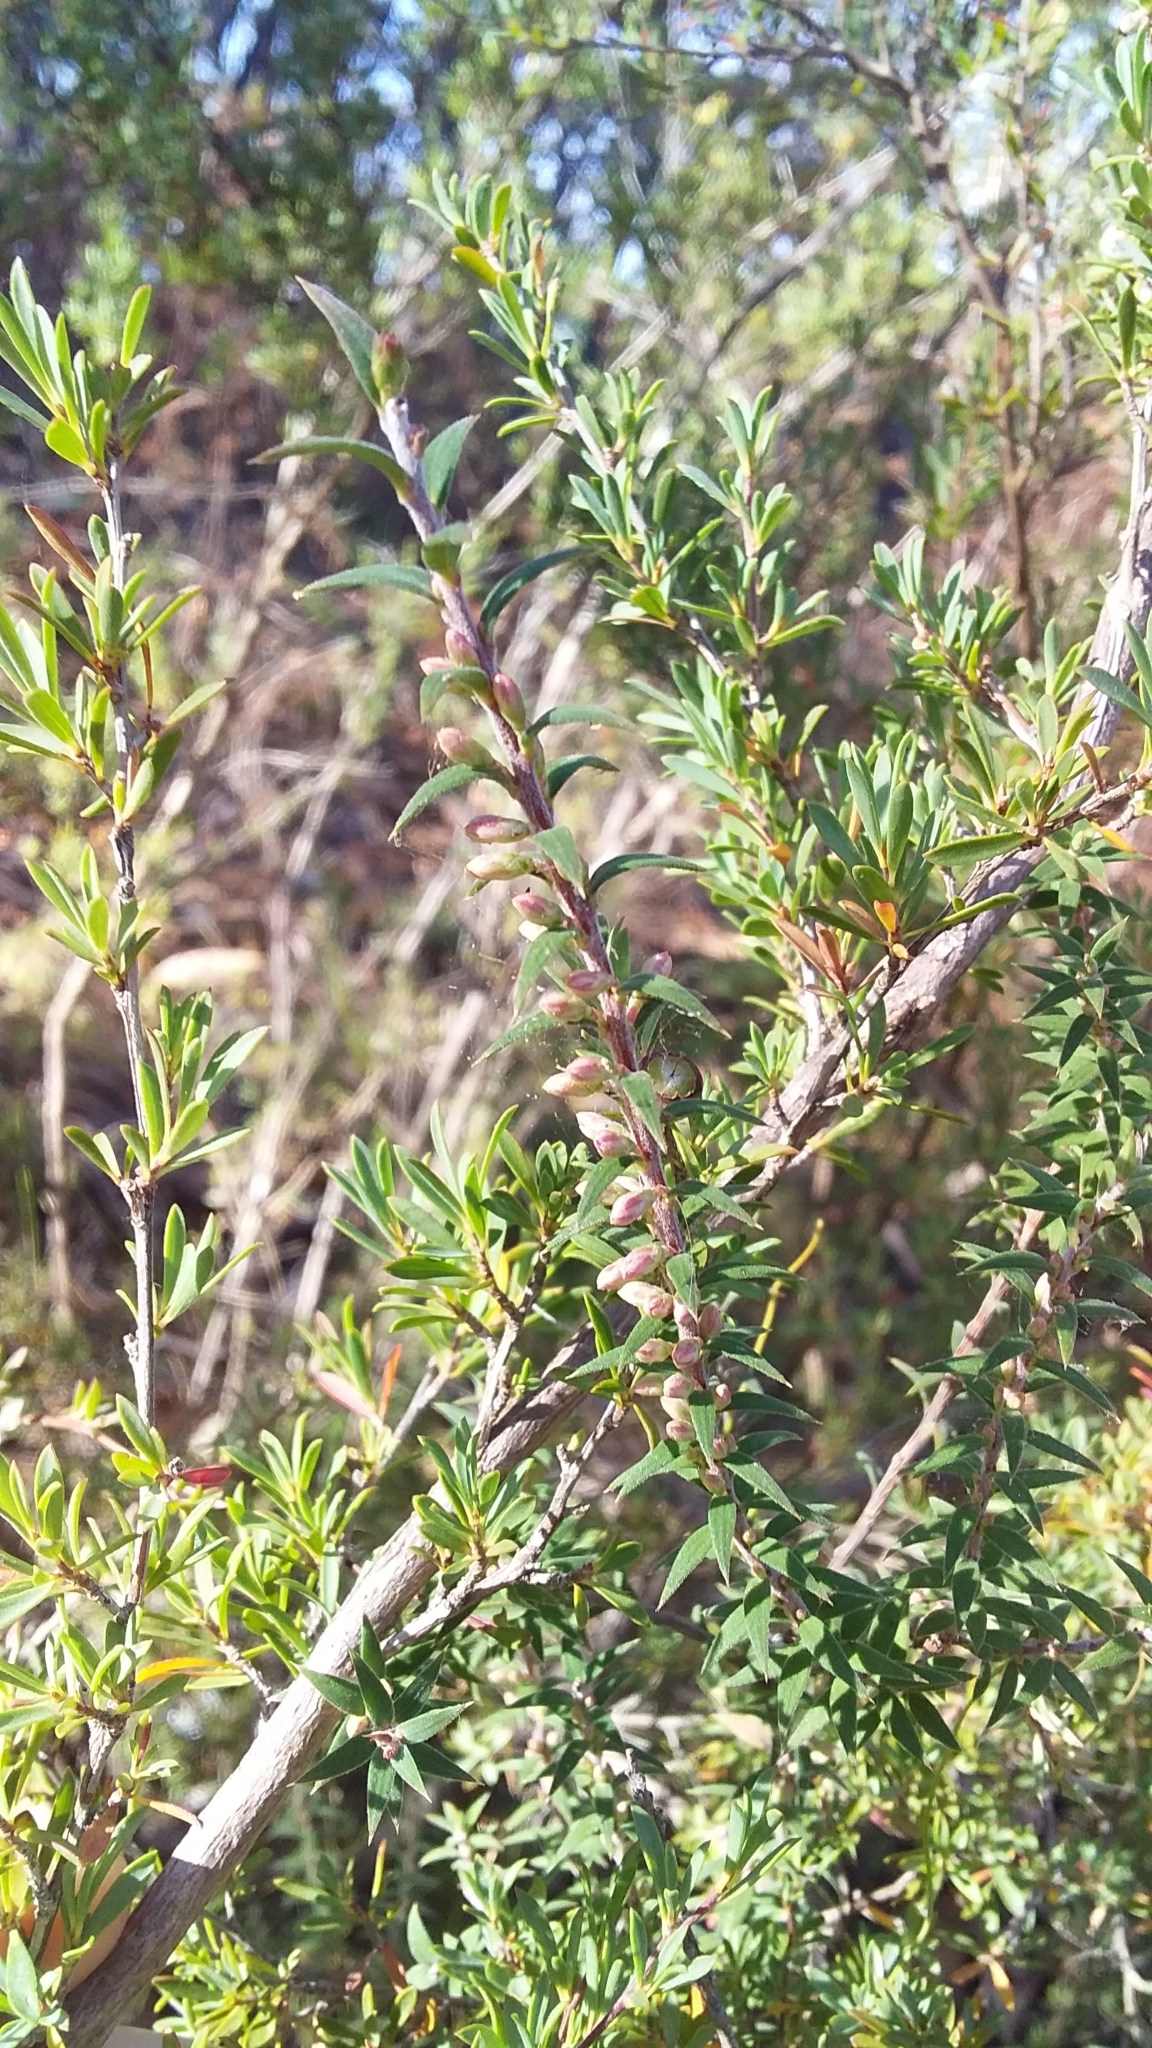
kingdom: Plantae
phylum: Tracheophyta
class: Magnoliopsida
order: Ericales
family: Ericaceae
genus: Epacris
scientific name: Epacris impressa
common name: Common-heath
